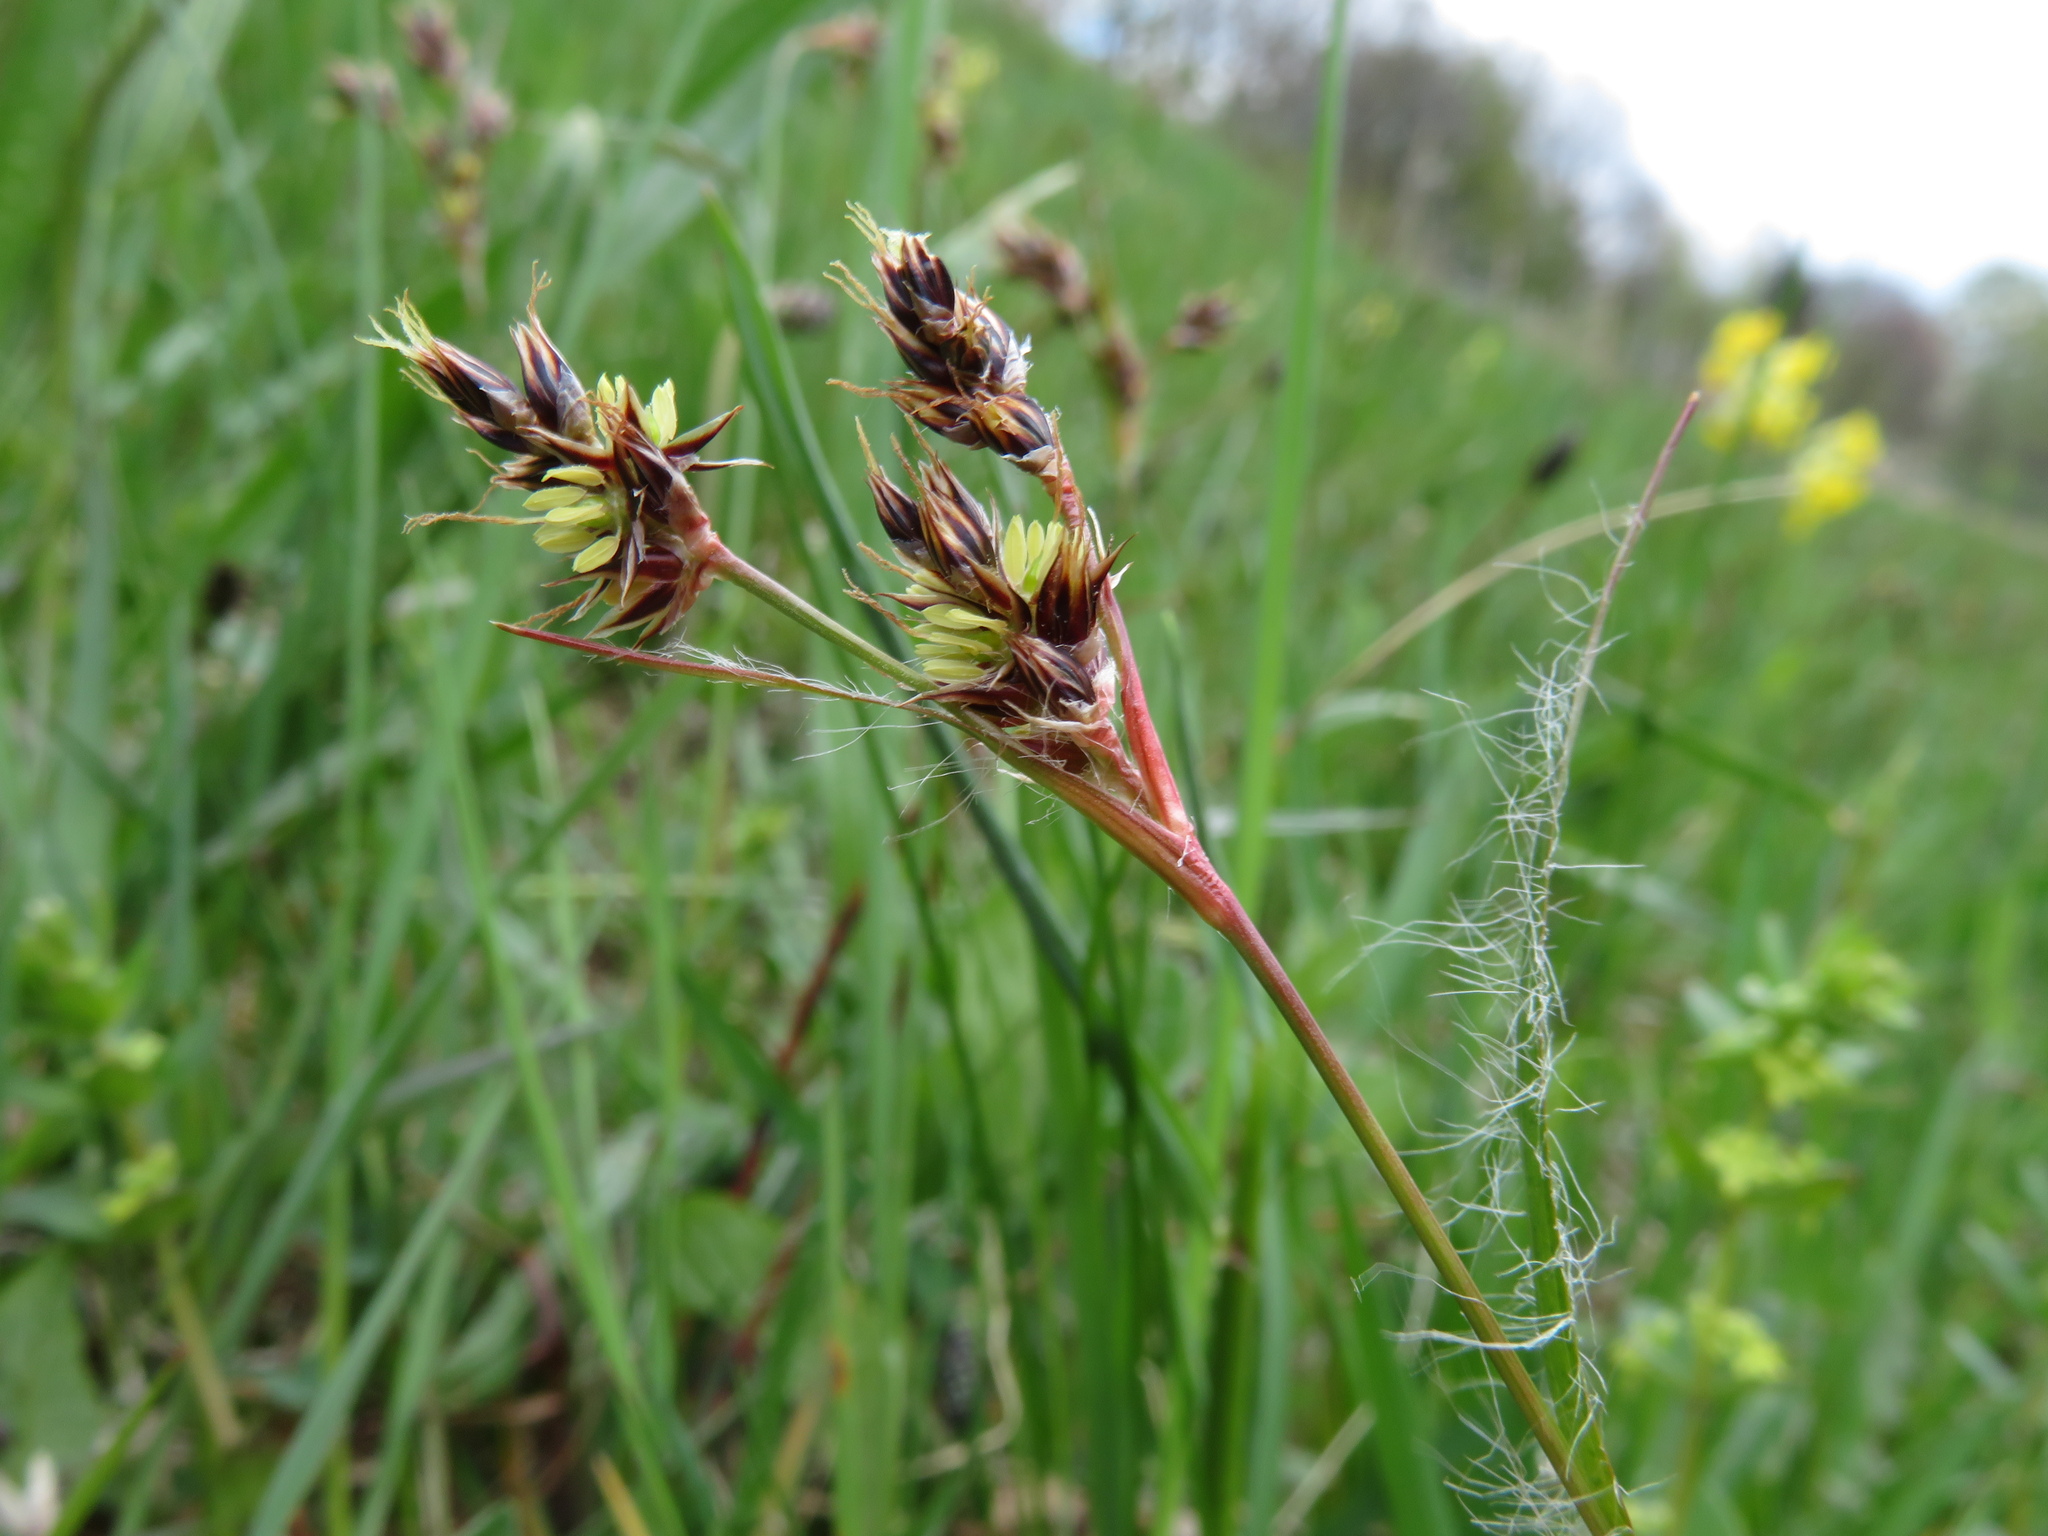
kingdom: Plantae
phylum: Tracheophyta
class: Liliopsida
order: Poales
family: Juncaceae
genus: Luzula
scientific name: Luzula campestris
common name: Field wood-rush
